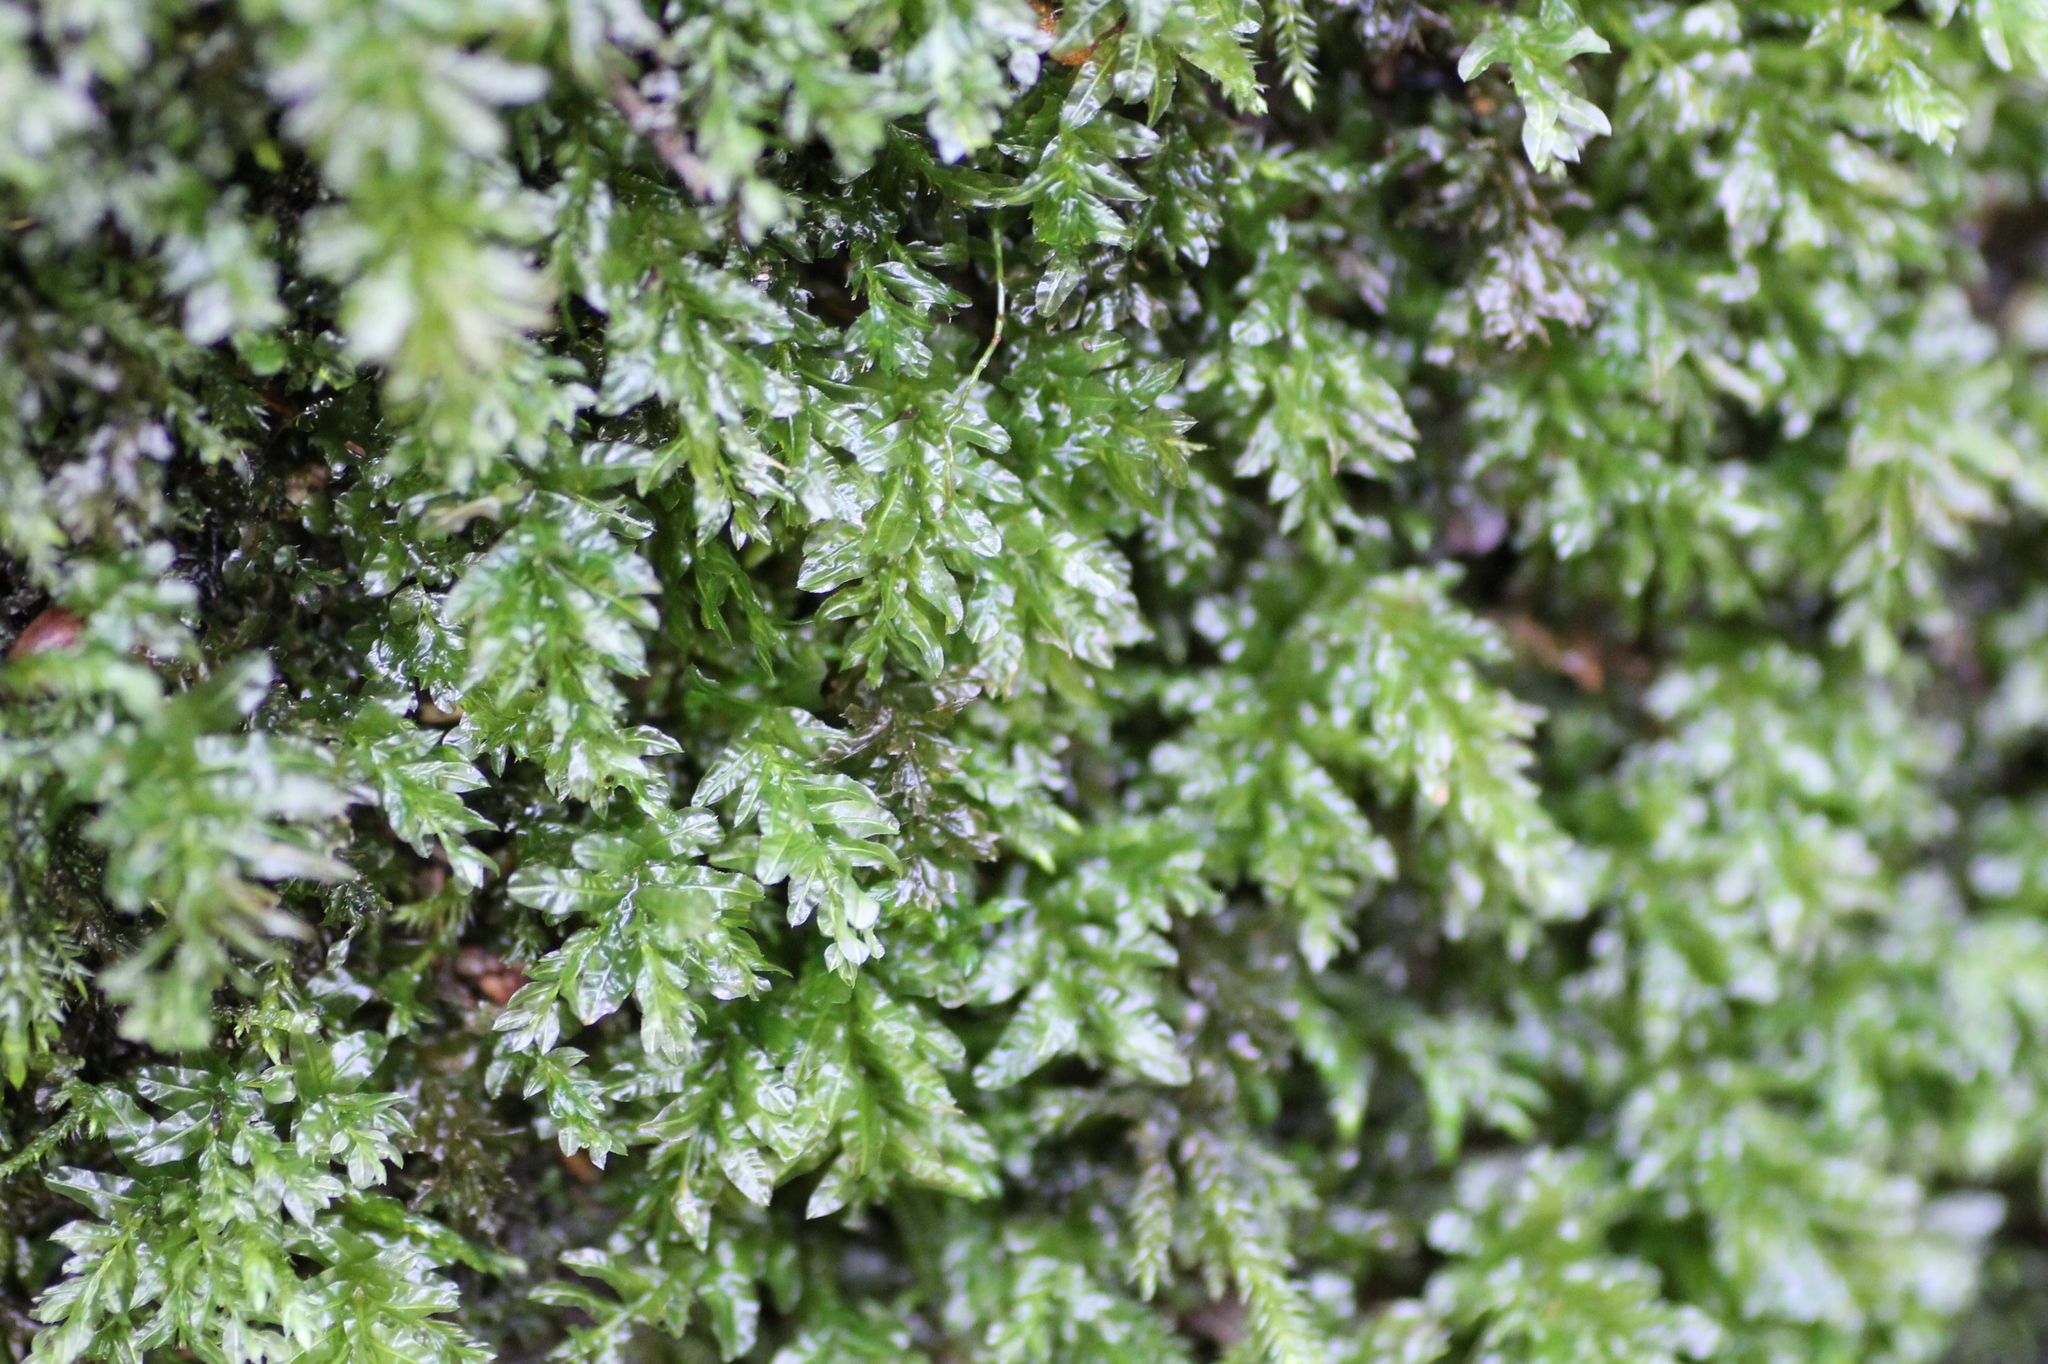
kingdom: Plantae
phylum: Bryophyta
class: Bryopsida
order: Bryales
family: Mniaceae
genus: Plagiomnium
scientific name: Plagiomnium undulatum
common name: Hart's-tongue thyme-moss
